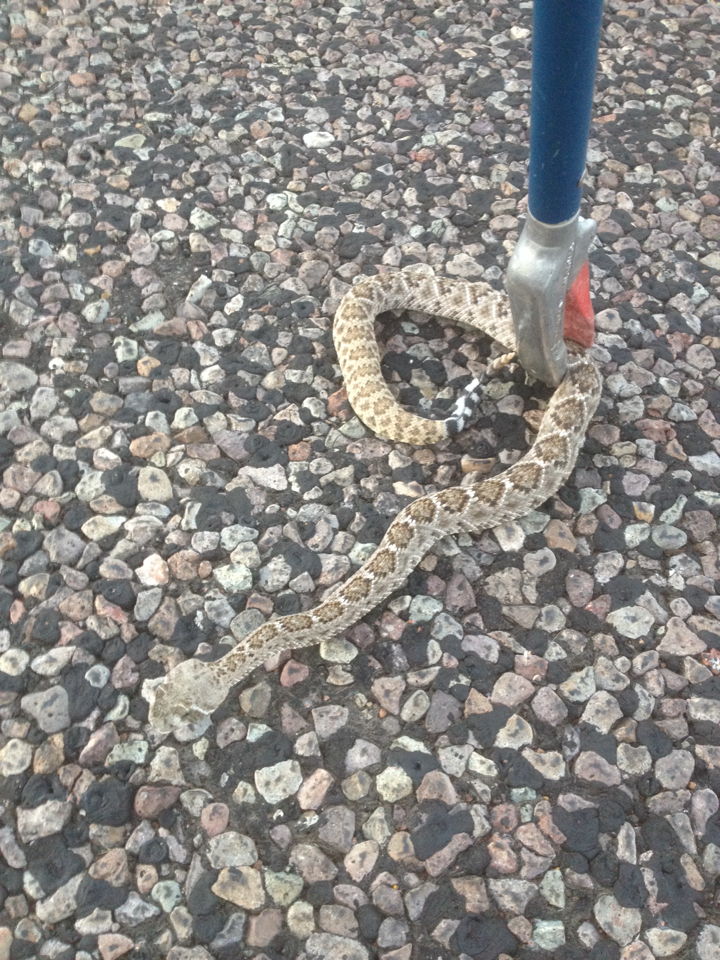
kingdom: Animalia
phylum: Chordata
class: Squamata
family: Viperidae
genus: Crotalus
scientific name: Crotalus atrox
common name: Western diamond-backed rattlesnake
